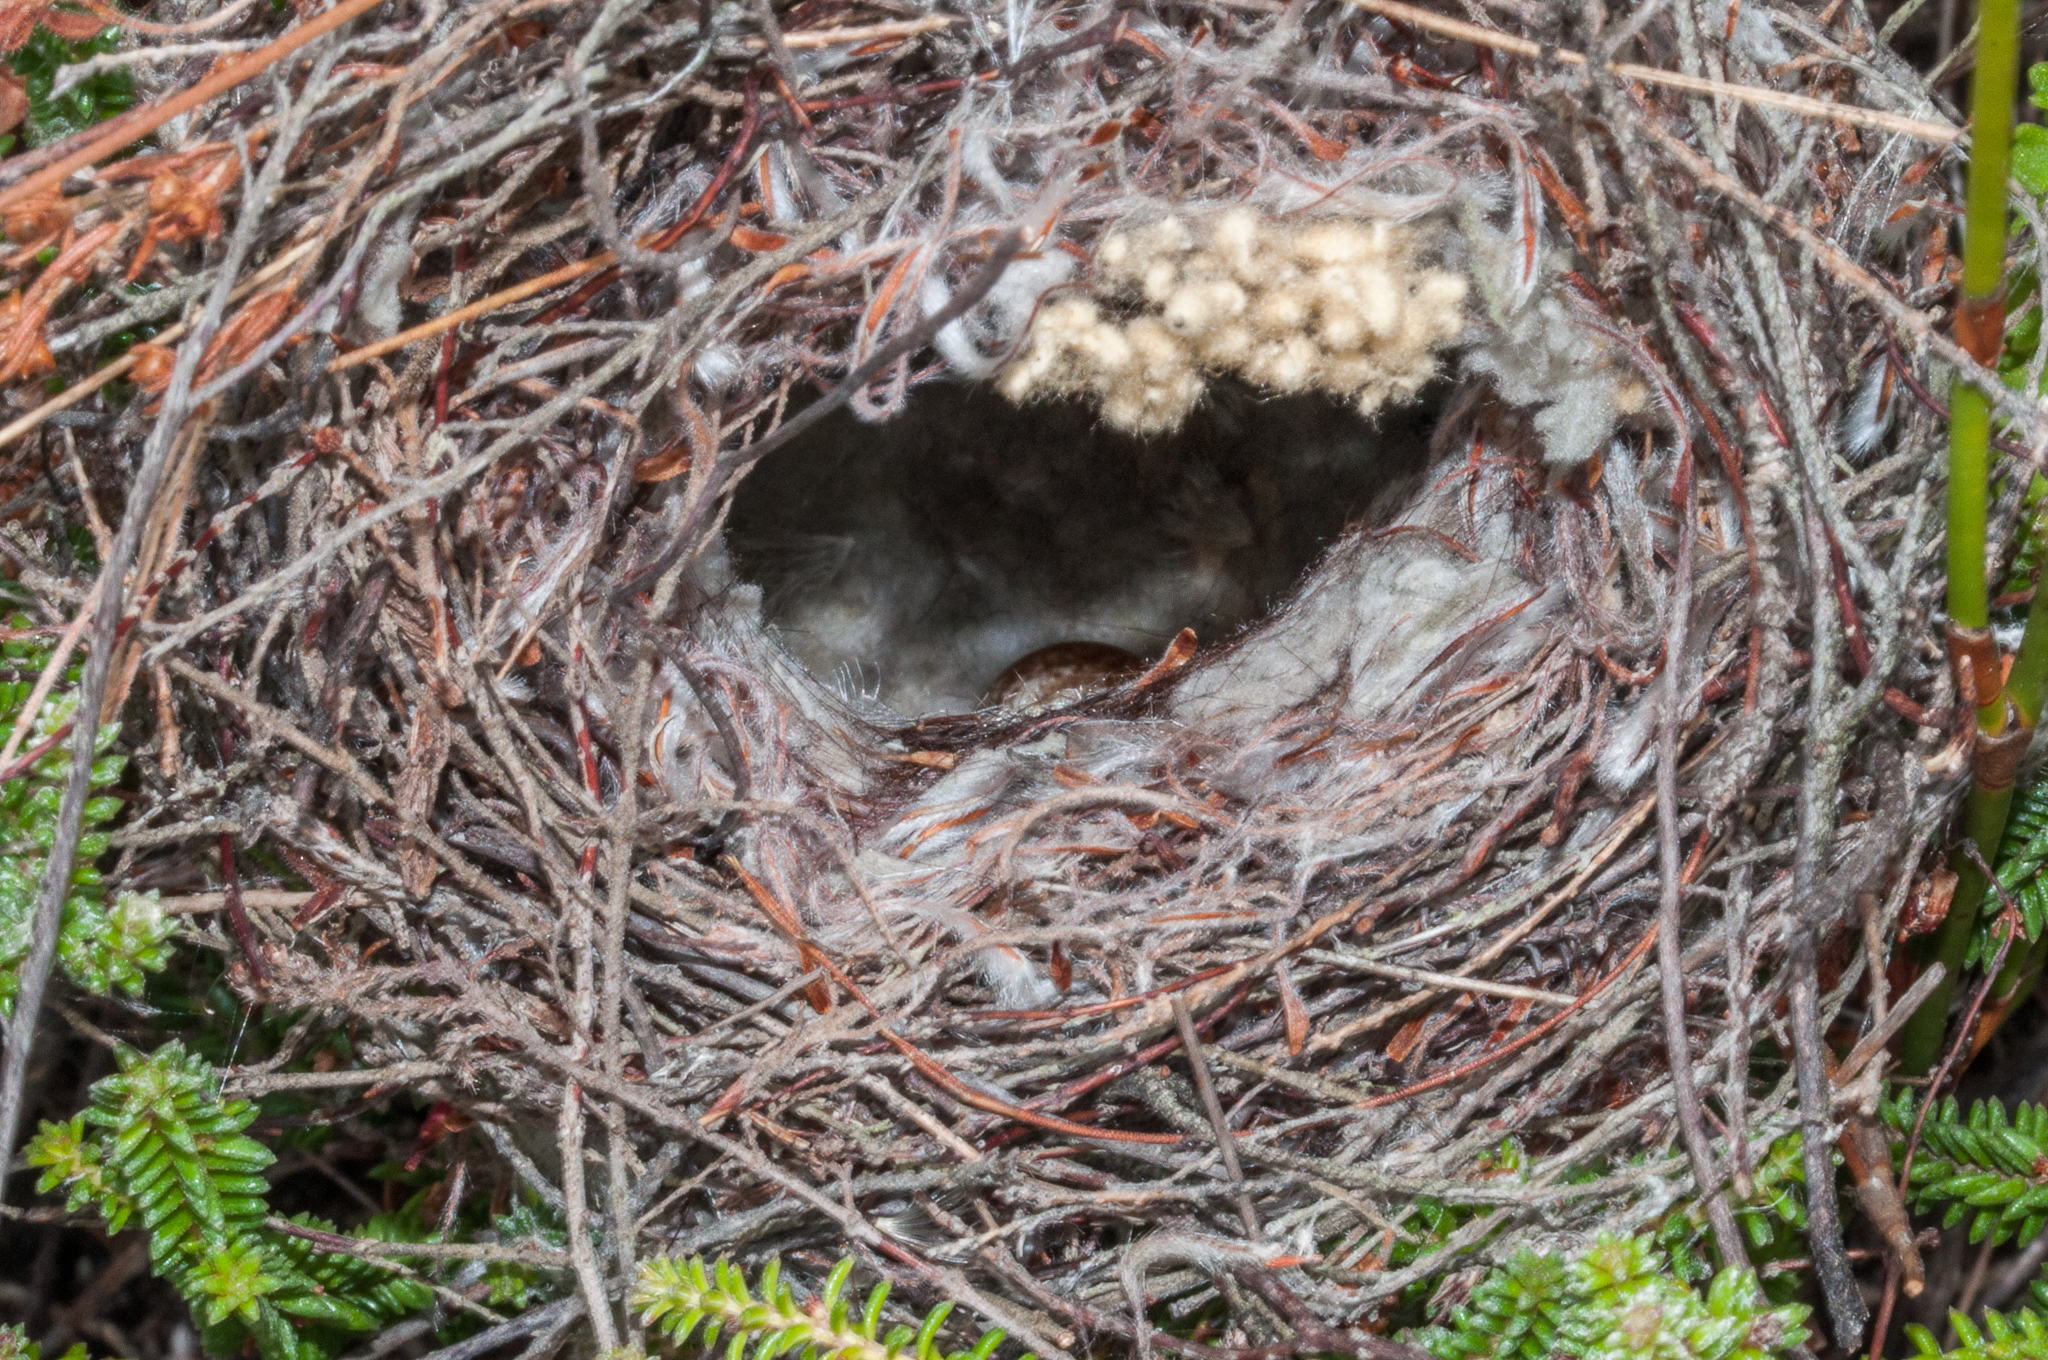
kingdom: Animalia
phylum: Chordata
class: Aves
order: Passeriformes
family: Nectariniidae
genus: Anthobaphes
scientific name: Anthobaphes violacea
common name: Orange-breasted sunbird
